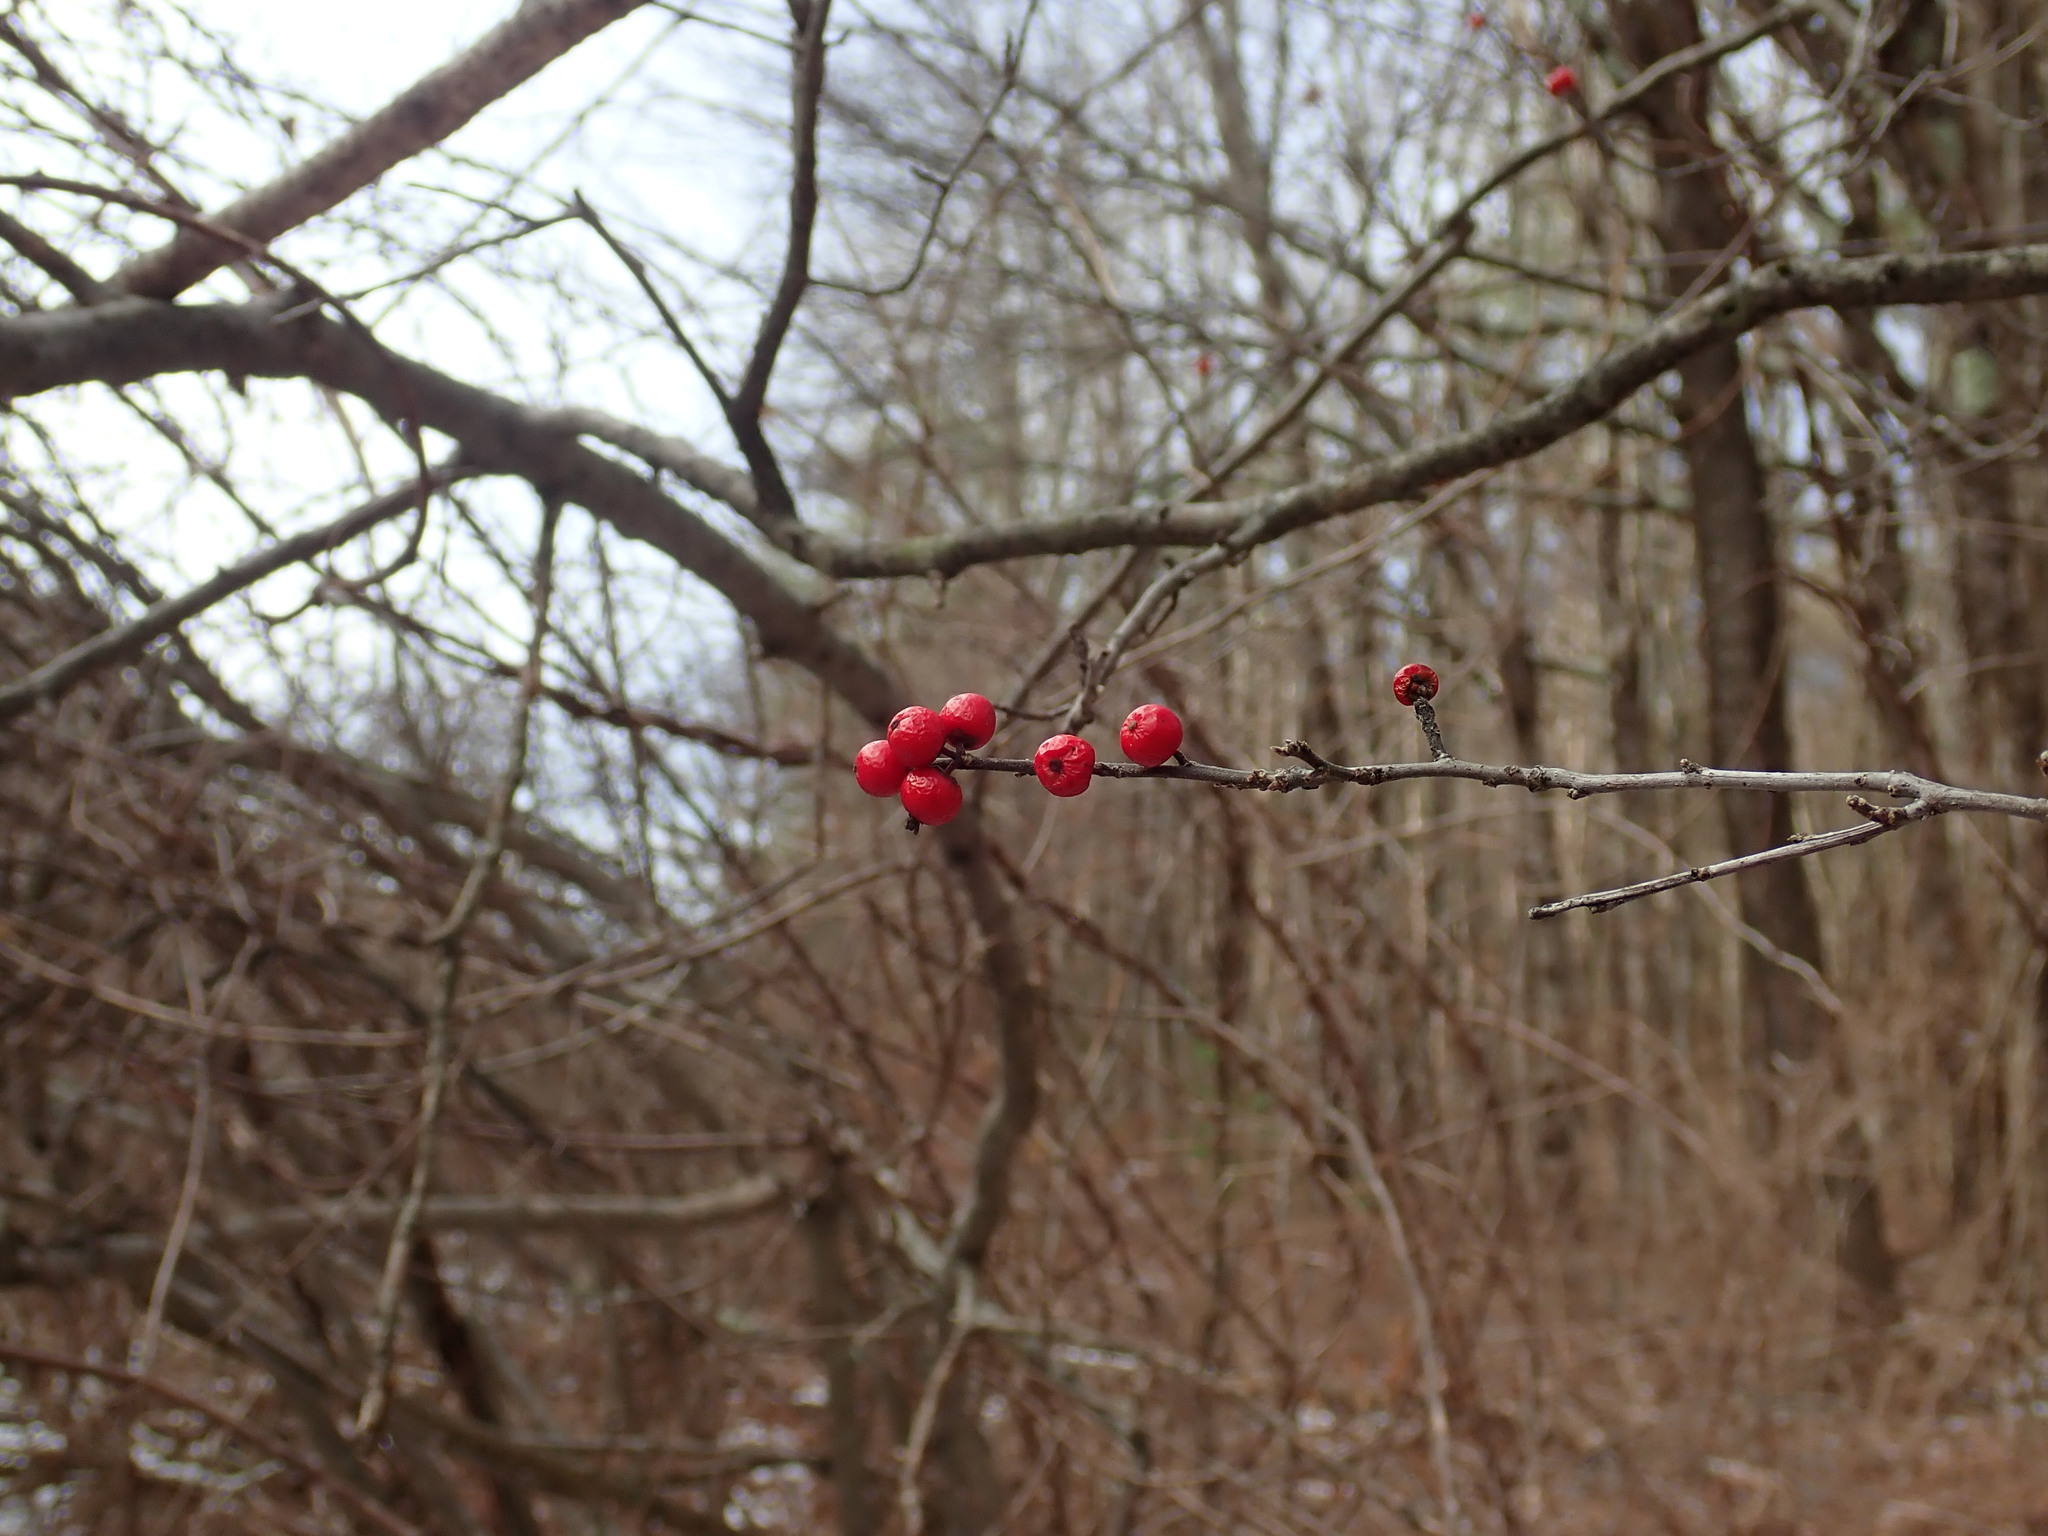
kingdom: Plantae
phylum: Tracheophyta
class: Magnoliopsida
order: Aquifoliales
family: Aquifoliaceae
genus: Ilex
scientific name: Ilex verticillata
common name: Virginia winterberry
